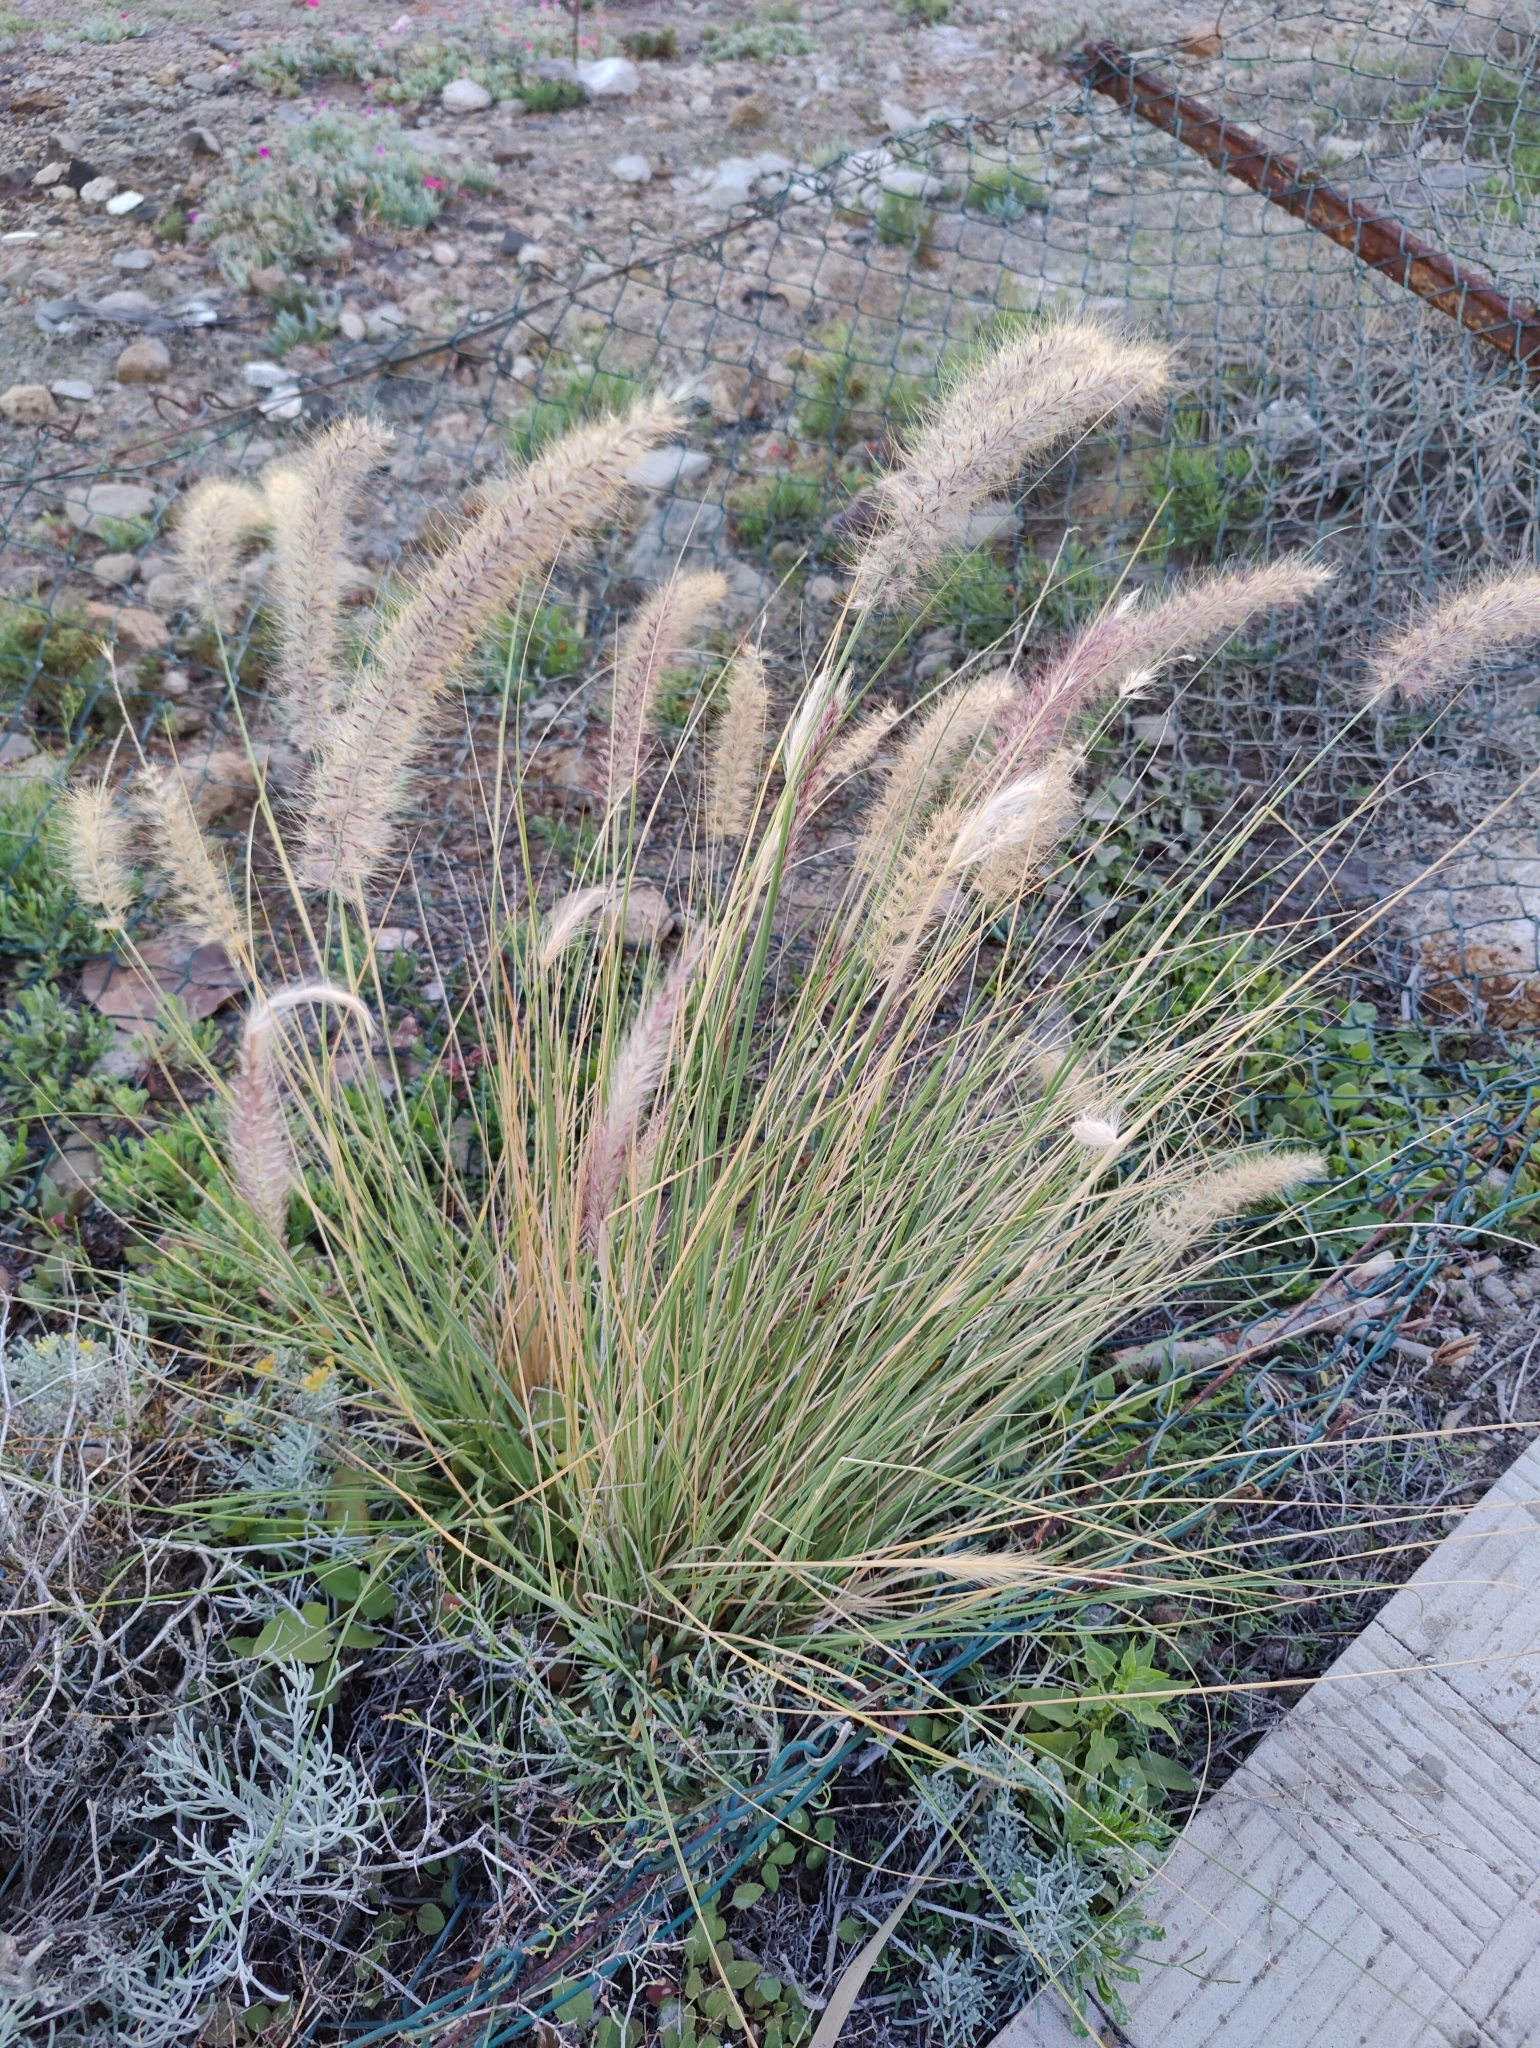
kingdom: Plantae
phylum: Tracheophyta
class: Liliopsida
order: Poales
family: Poaceae
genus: Cenchrus
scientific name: Cenchrus setaceus
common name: Crimson fountaingrass
